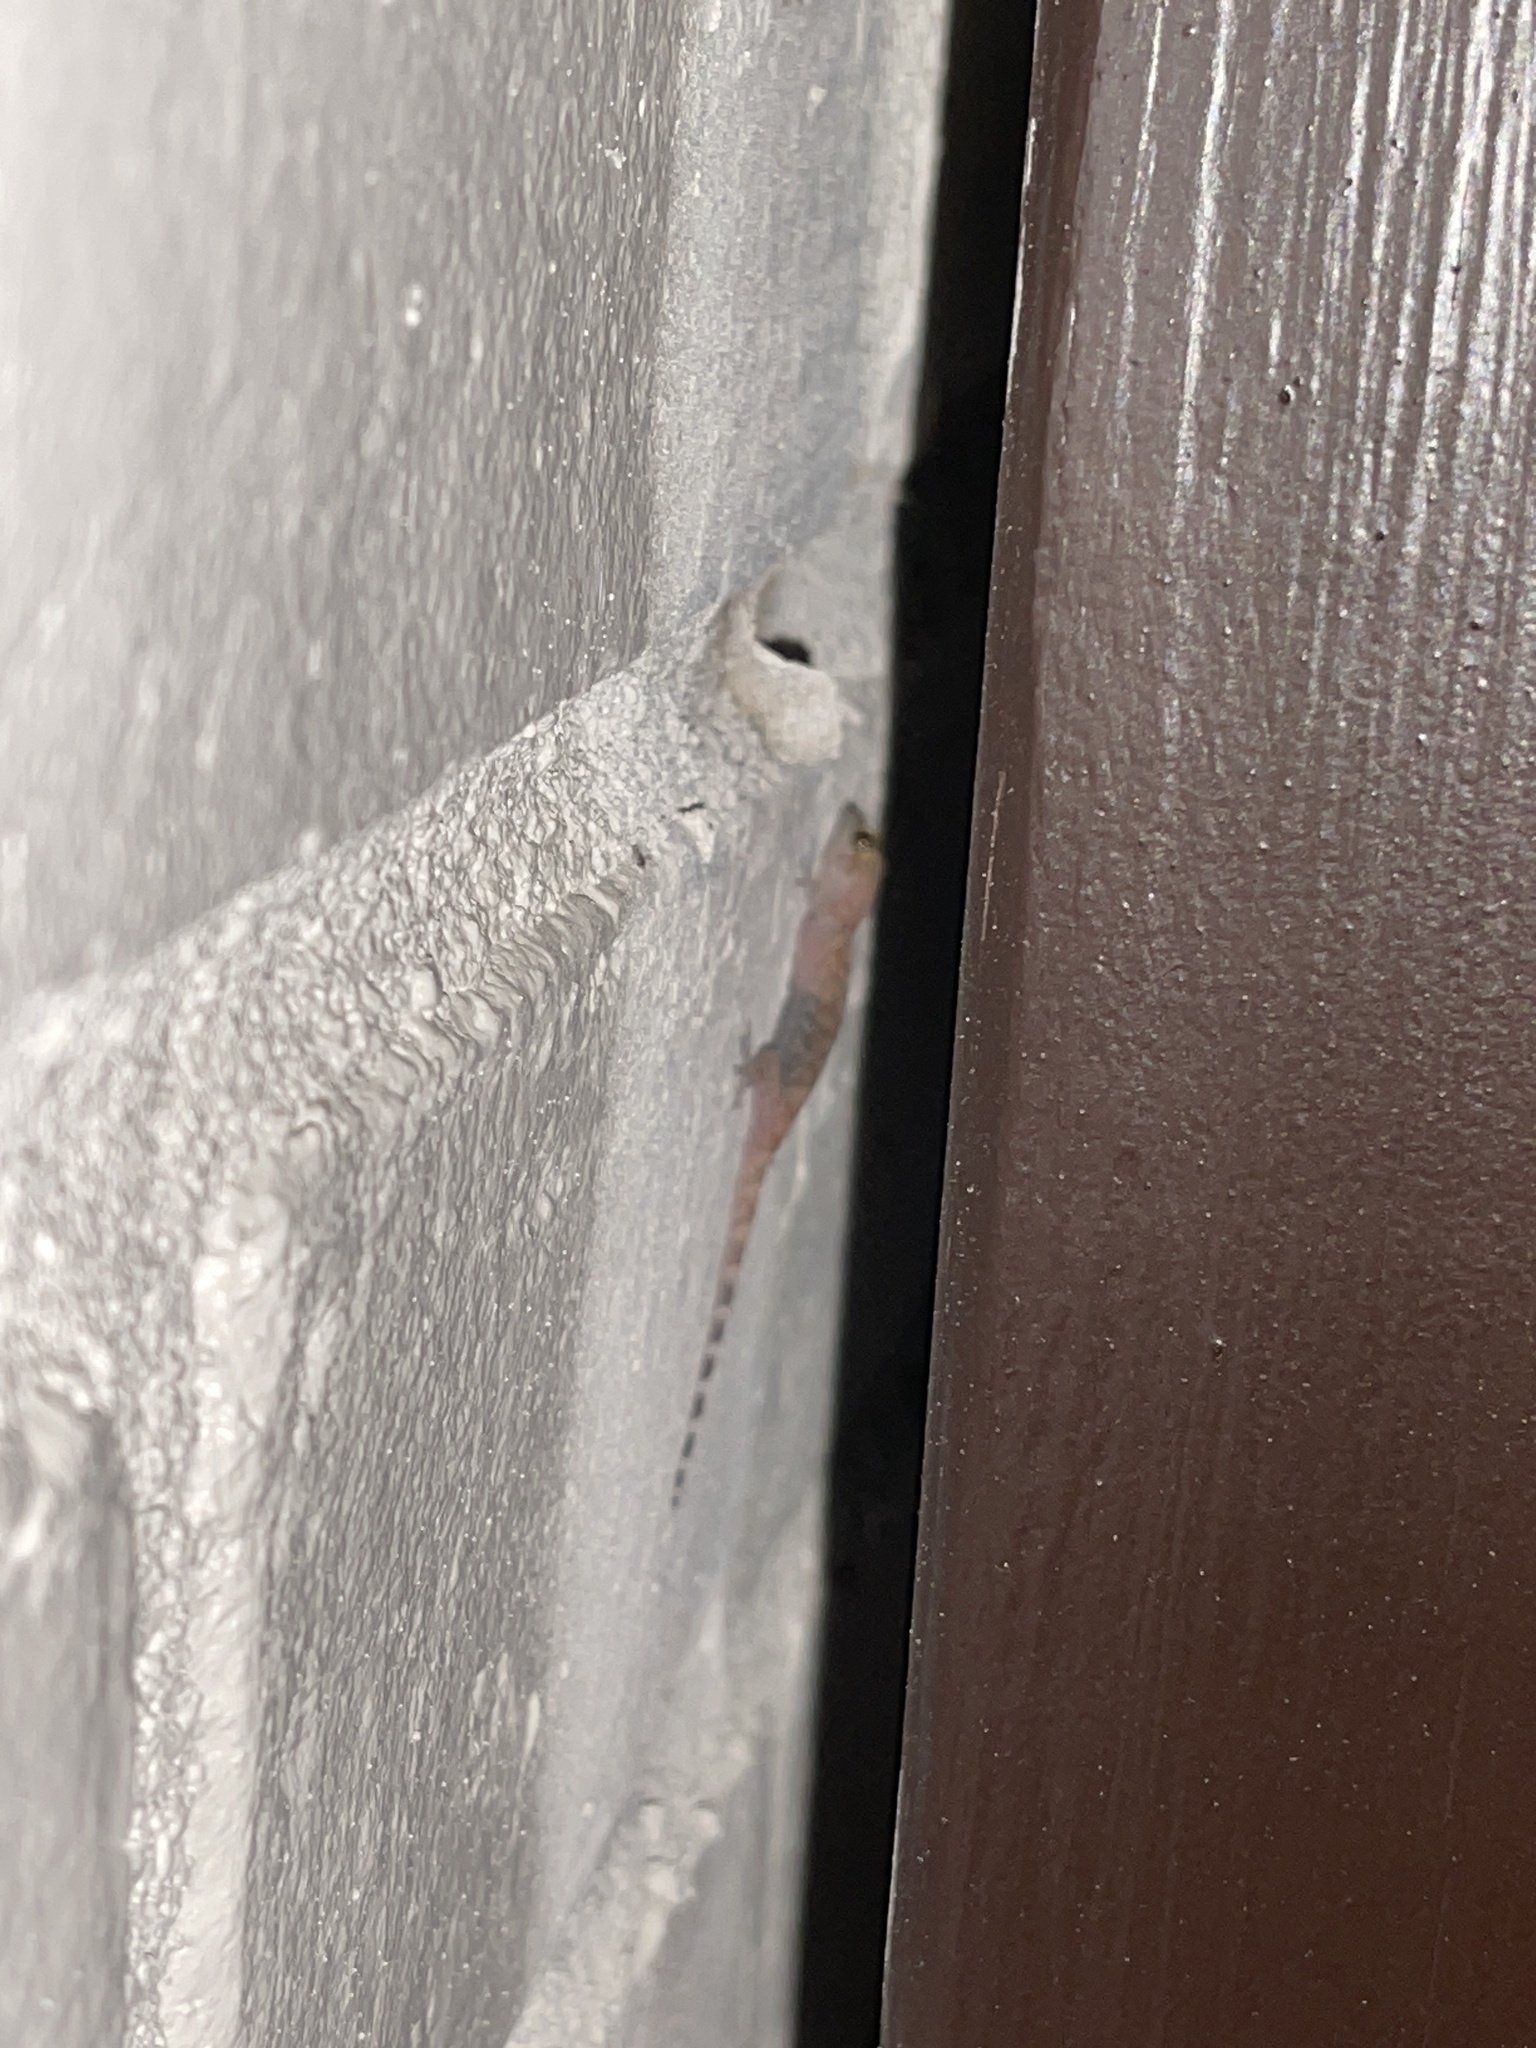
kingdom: Animalia
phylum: Chordata
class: Squamata
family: Gekkonidae
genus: Hemidactylus
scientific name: Hemidactylus turcicus
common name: Turkish gecko
